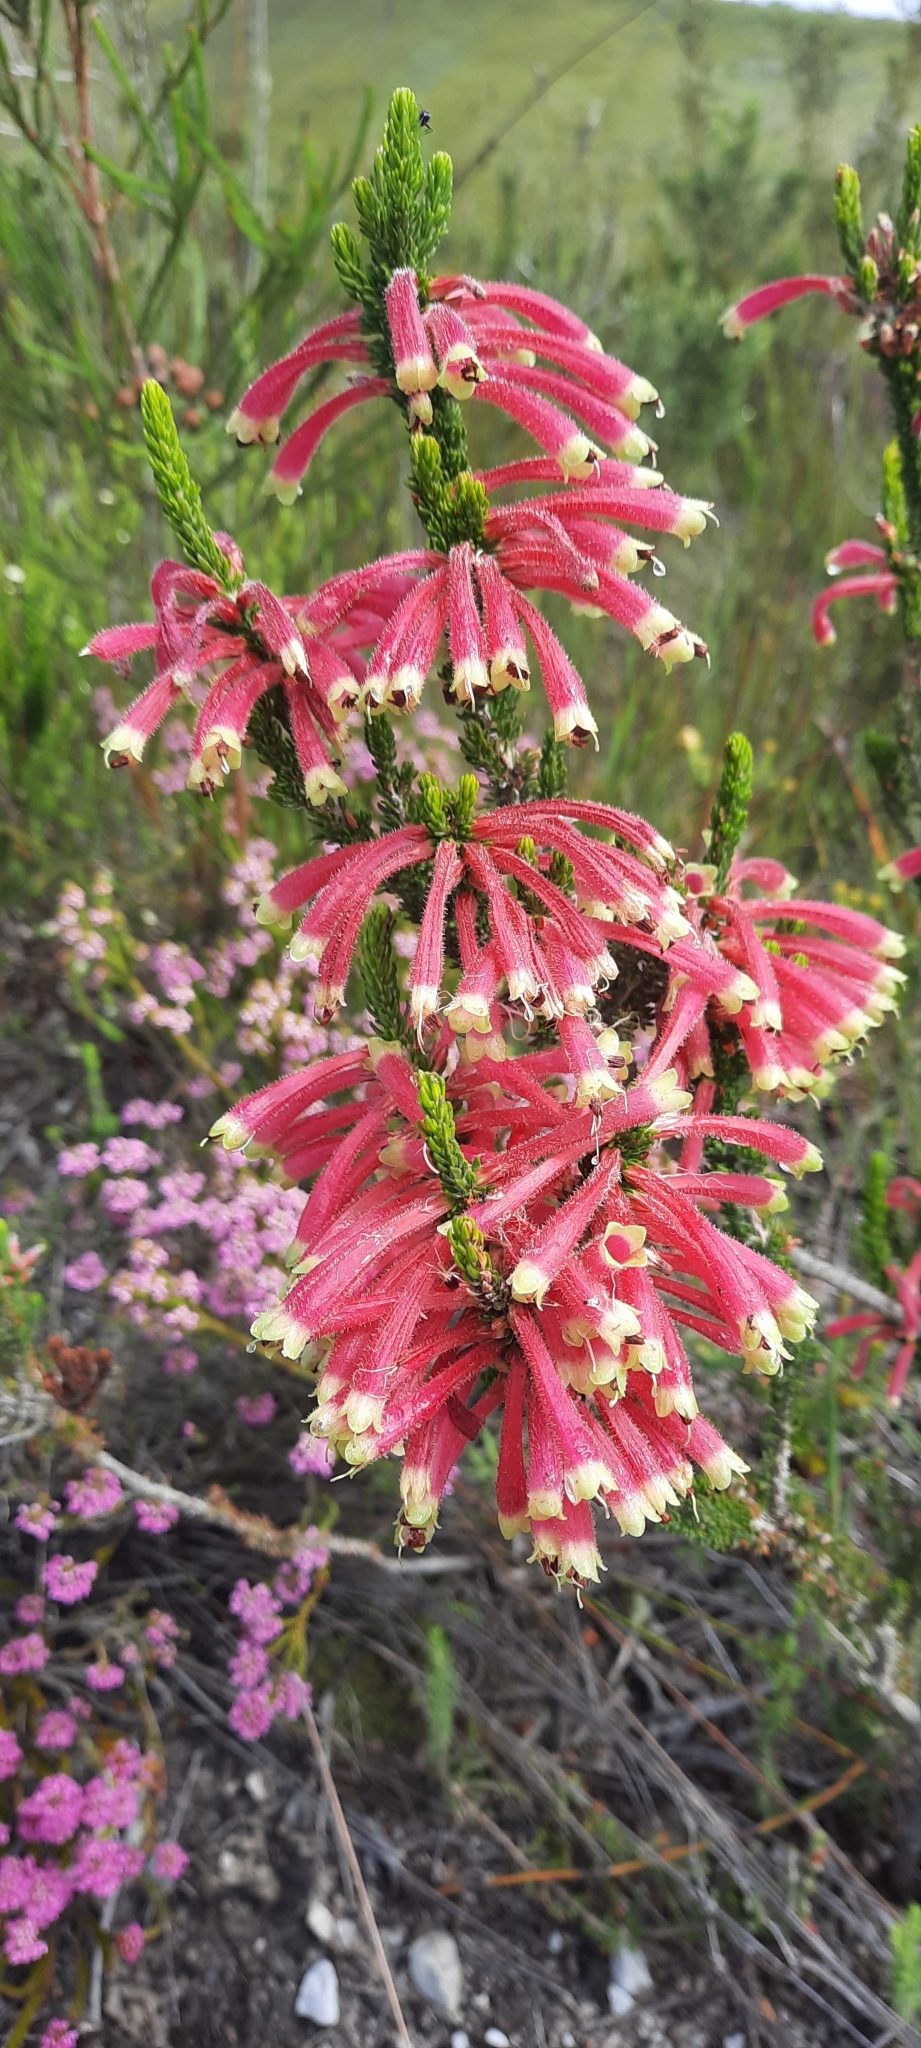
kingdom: Plantae
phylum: Tracheophyta
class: Magnoliopsida
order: Ericales
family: Ericaceae
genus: Erica
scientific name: Erica densifolia
